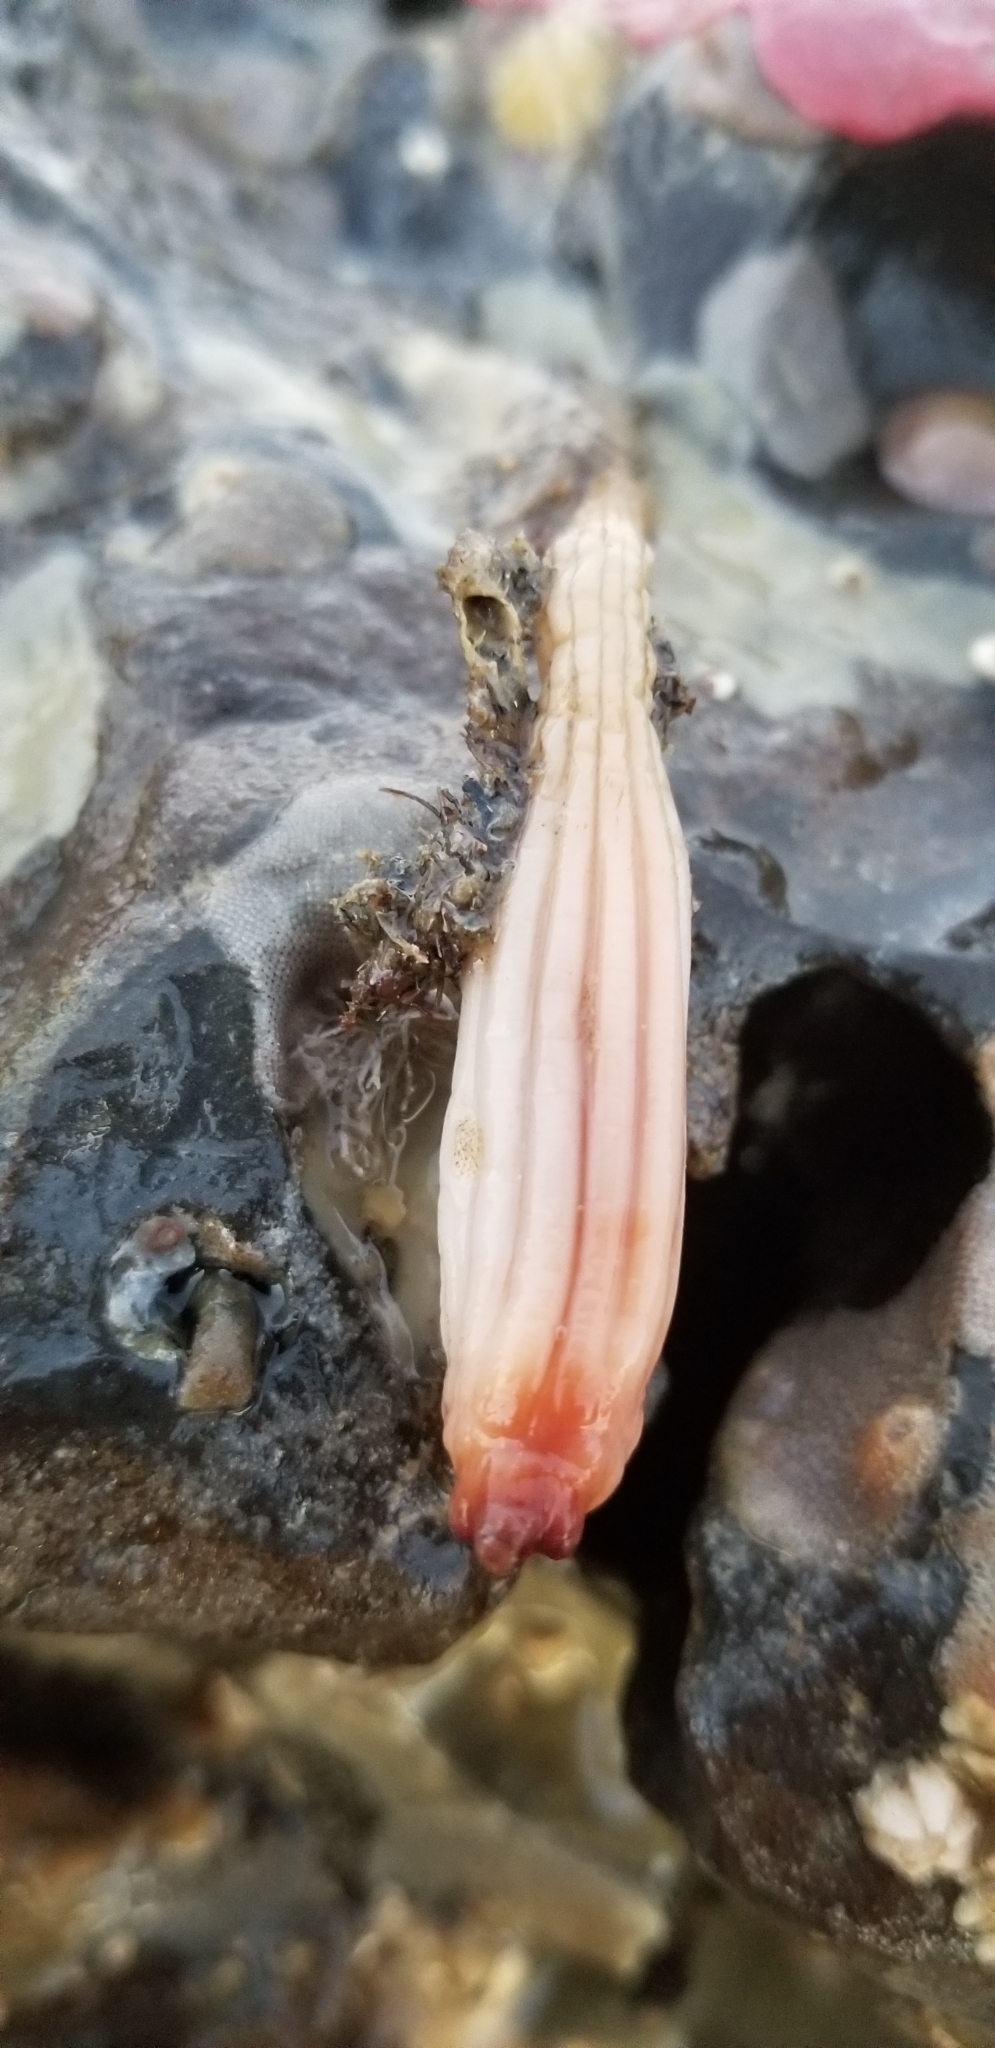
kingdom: Animalia
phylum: Chordata
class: Ascidiacea
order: Stolidobranchia
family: Styelidae
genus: Styela
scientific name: Styela montereyensis
